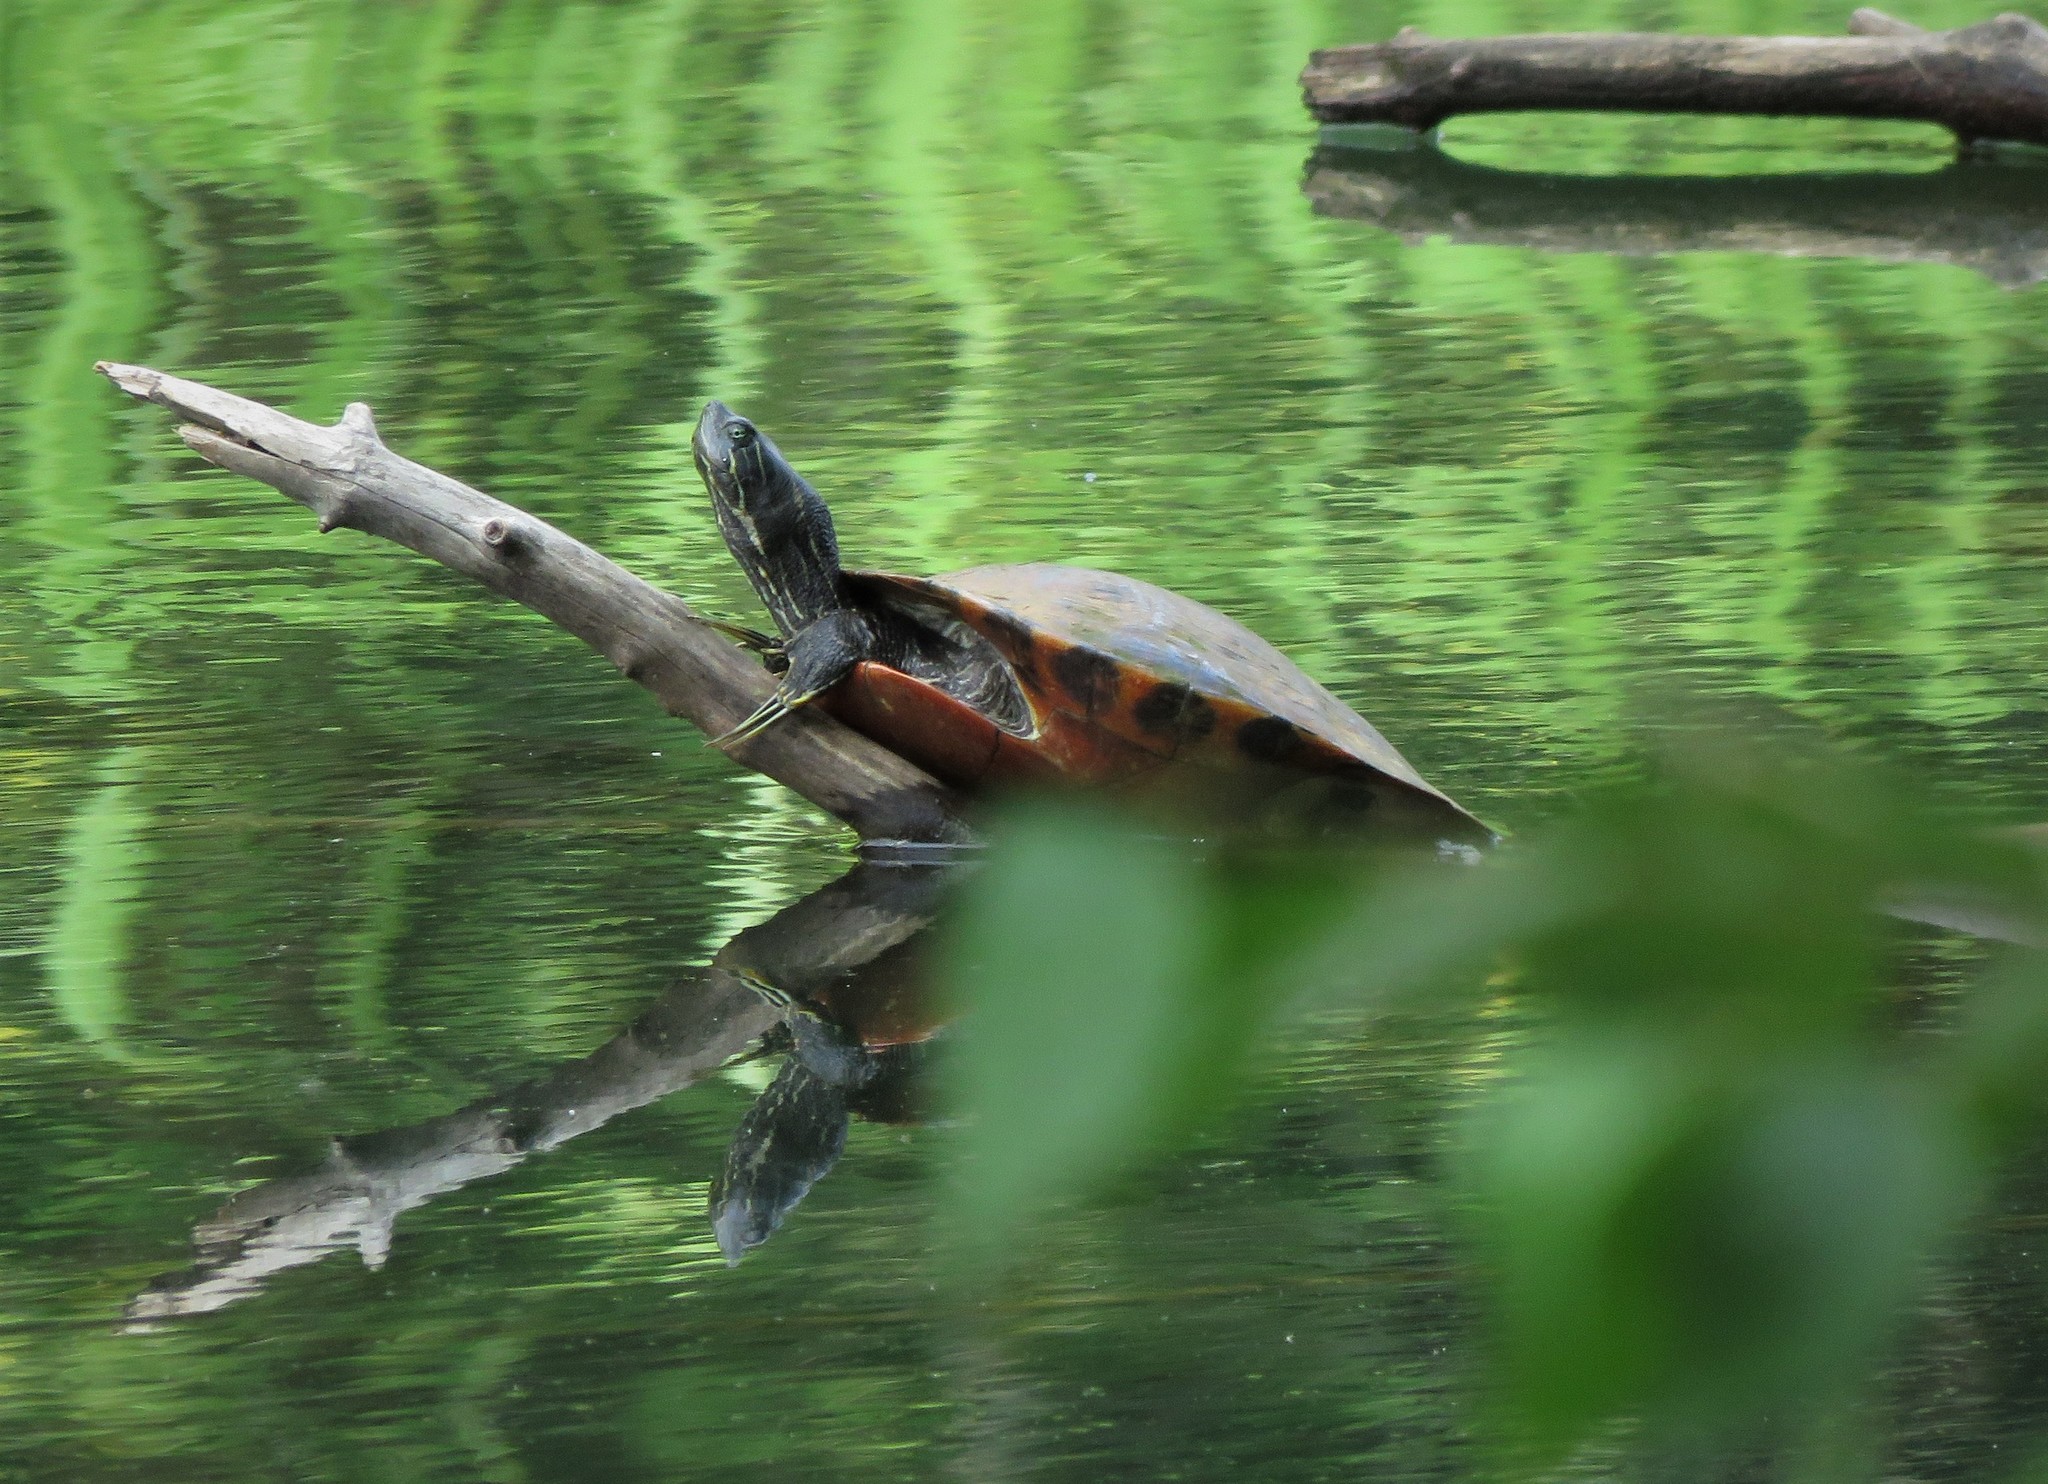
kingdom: Animalia
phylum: Chordata
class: Testudines
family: Emydidae
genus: Pseudemys
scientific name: Pseudemys concinna
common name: Eastern river cooter
